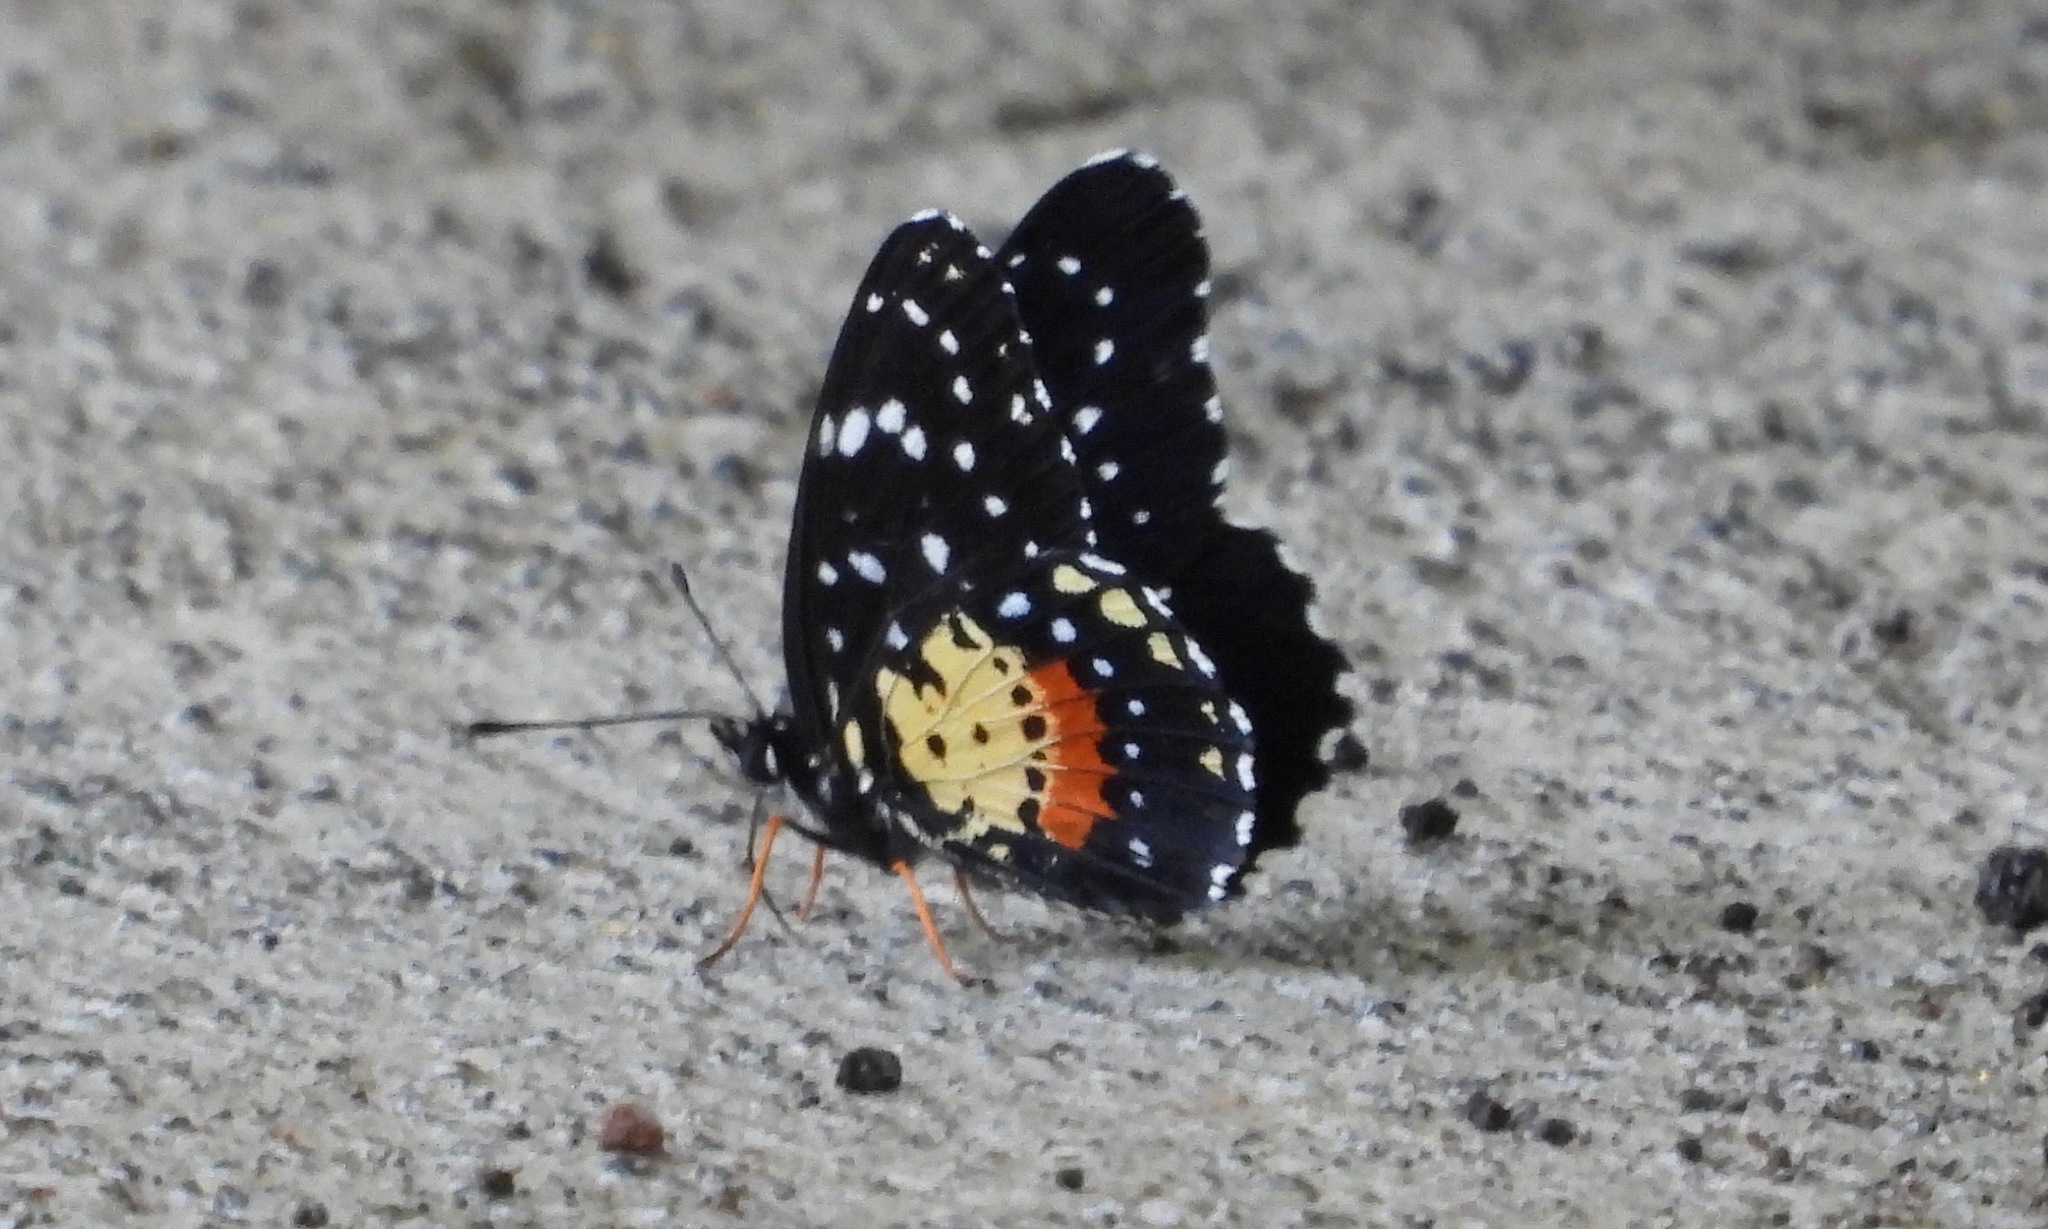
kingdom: Animalia
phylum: Arthropoda
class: Insecta
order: Lepidoptera
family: Nymphalidae
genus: Chlosyne
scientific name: Chlosyne janais
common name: Crimson patch
